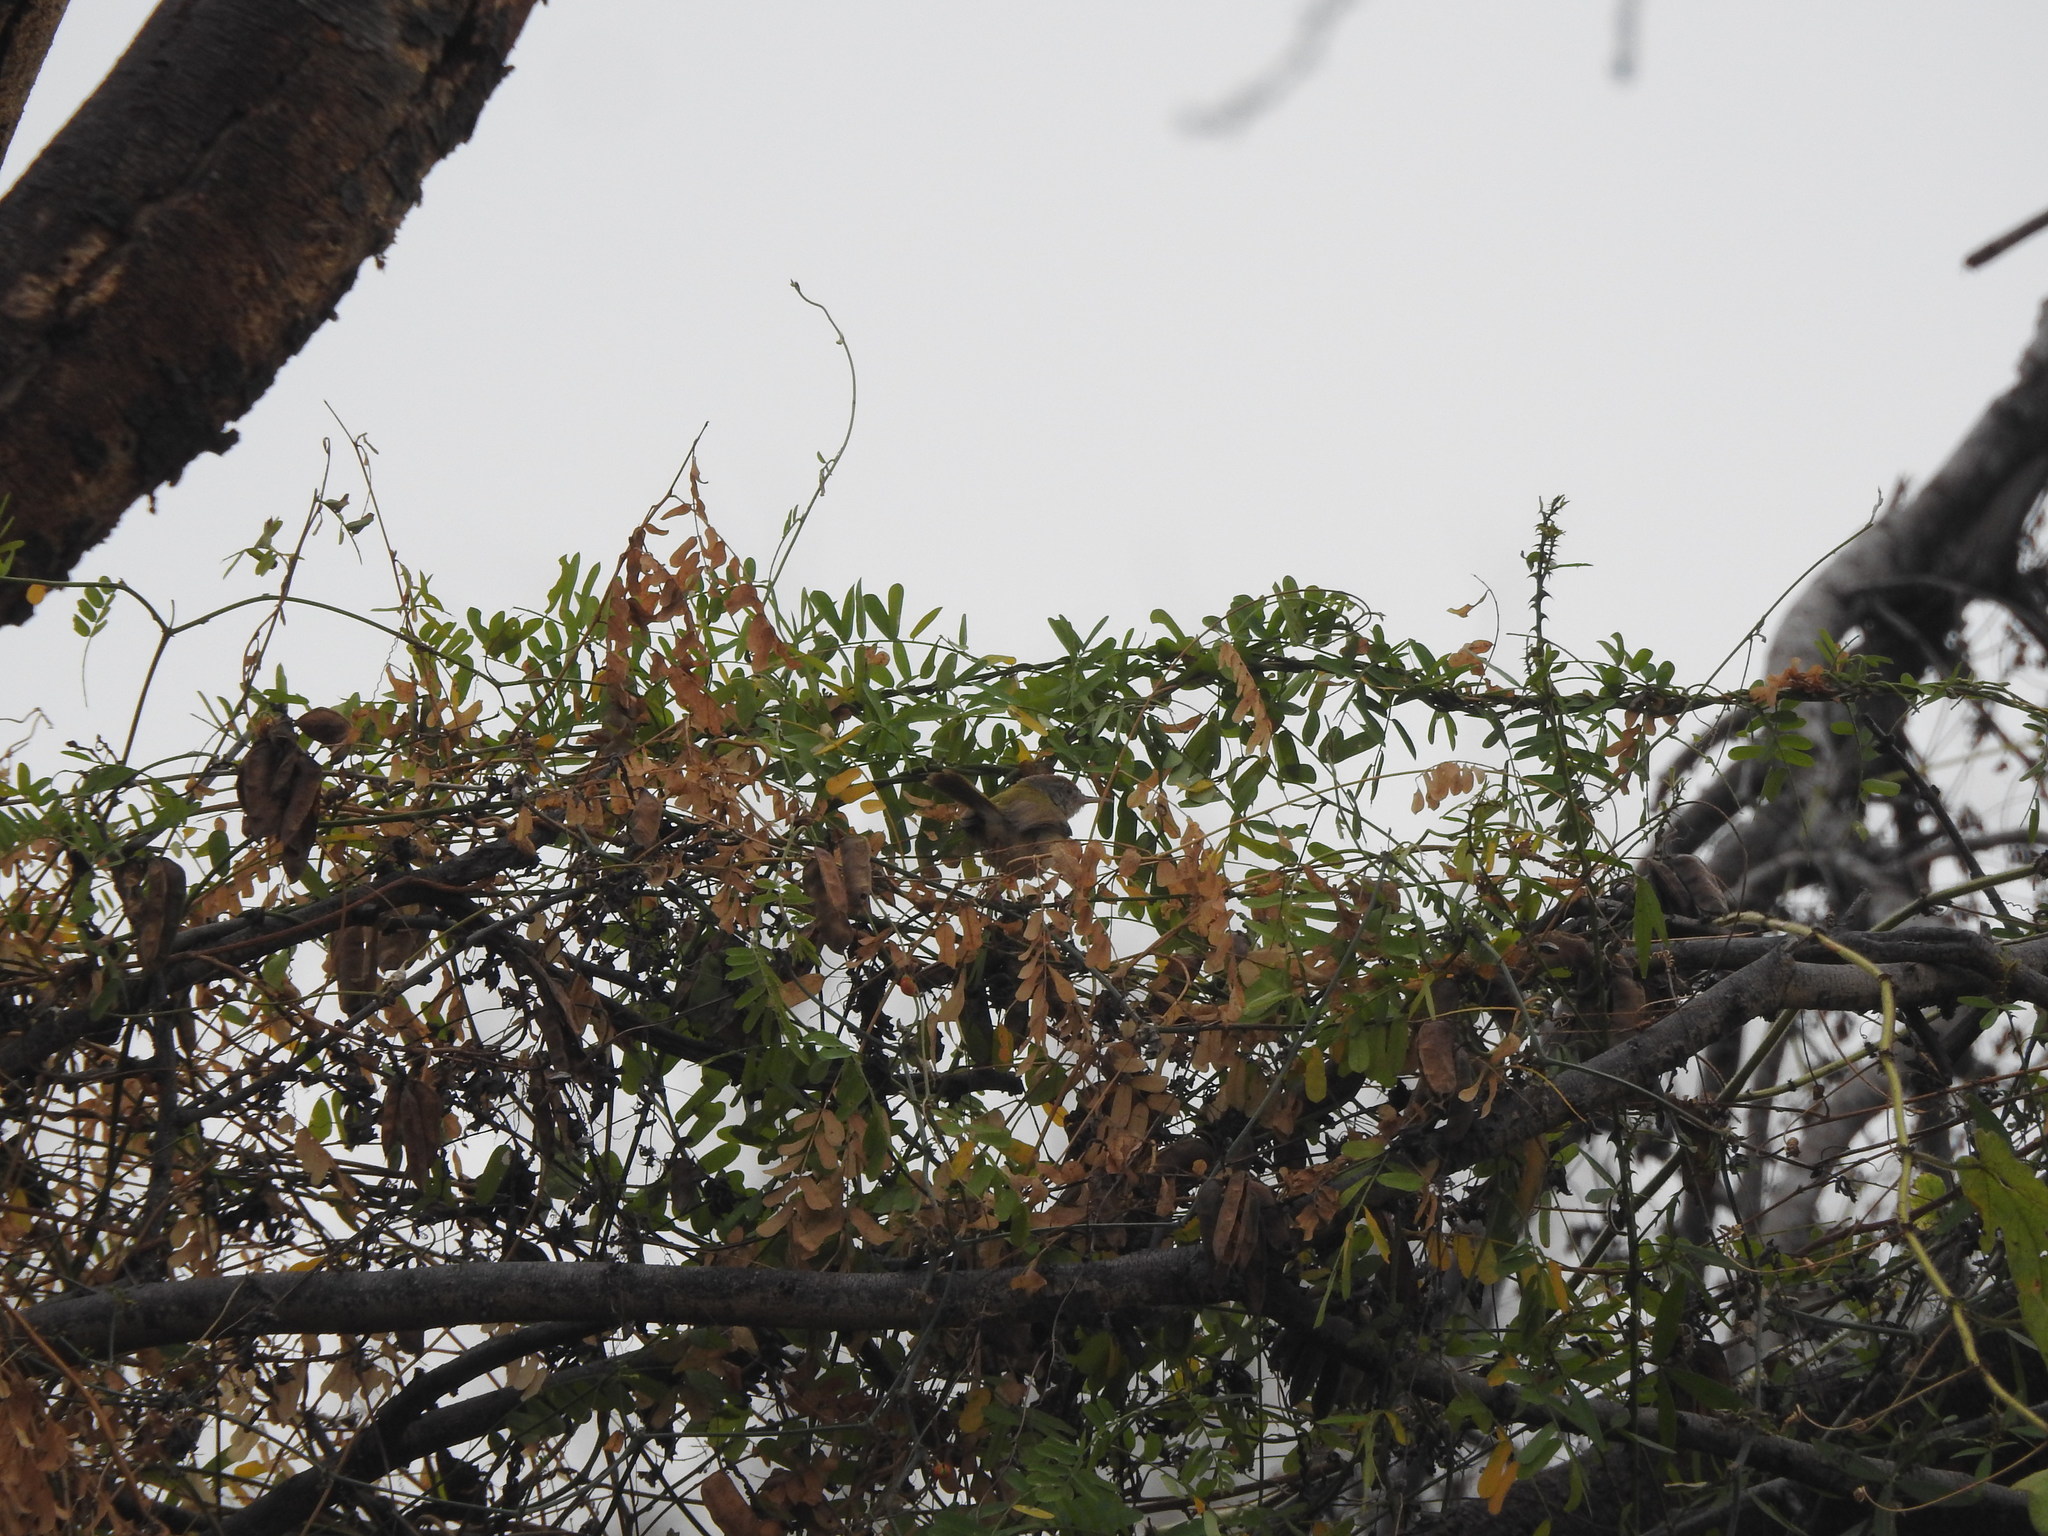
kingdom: Animalia
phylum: Chordata
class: Aves
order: Passeriformes
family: Cisticolidae
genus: Orthotomus
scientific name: Orthotomus sutorius
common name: Common tailorbird
